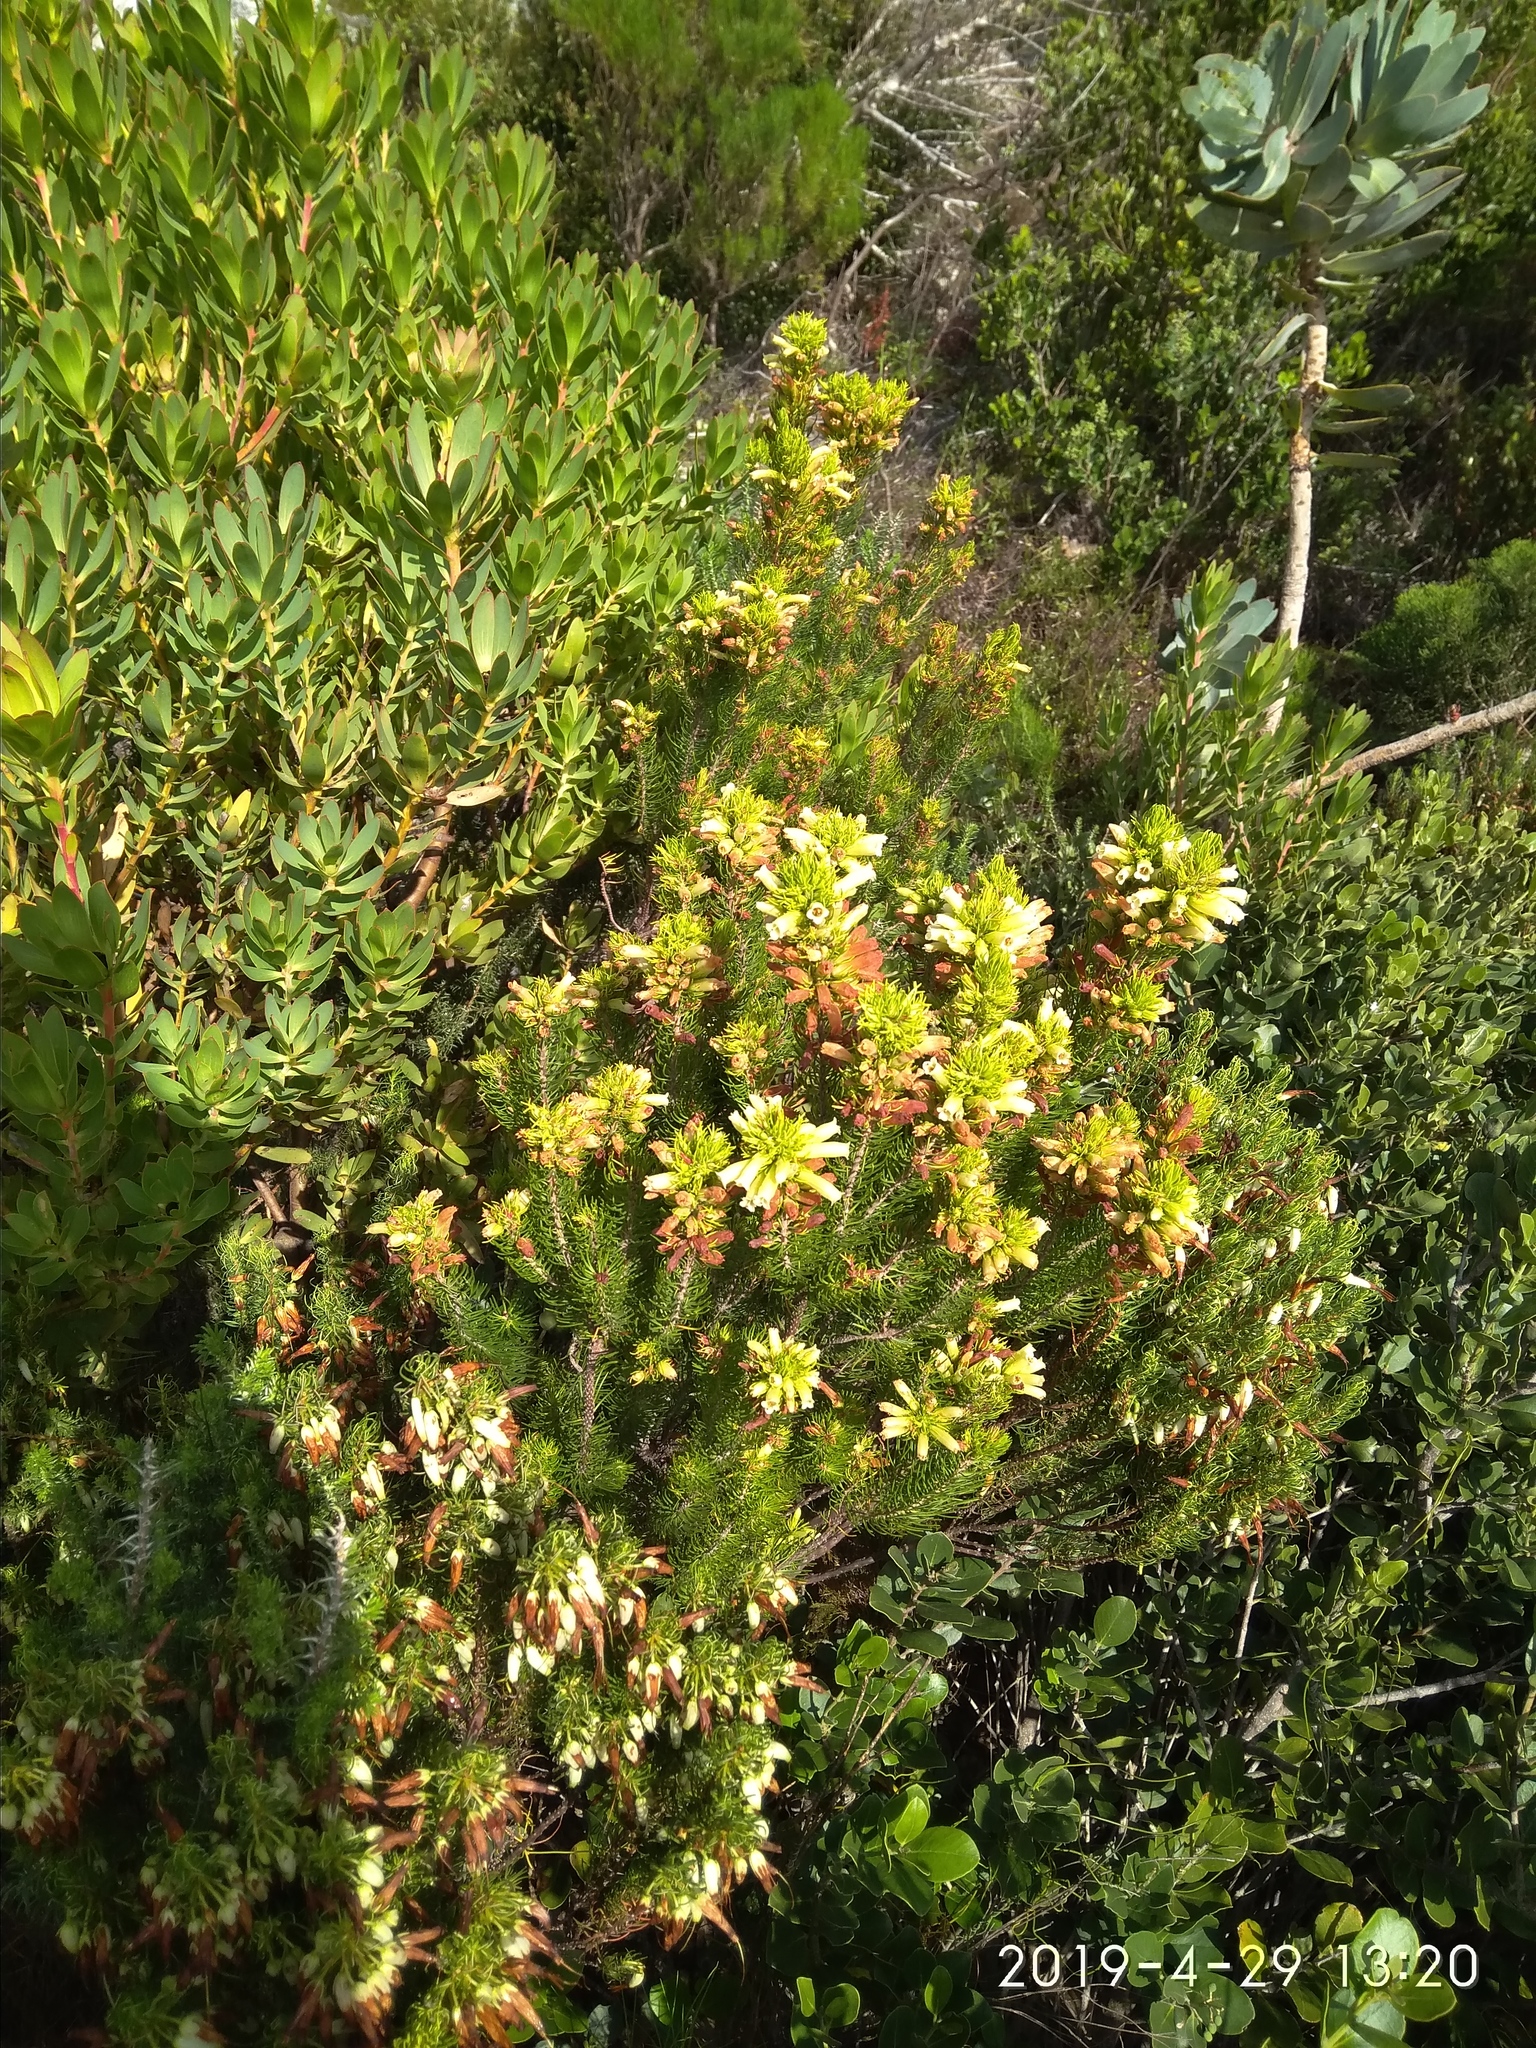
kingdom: Plantae
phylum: Tracheophyta
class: Magnoliopsida
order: Ericales
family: Ericaceae
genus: Erica
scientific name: Erica viscaria
